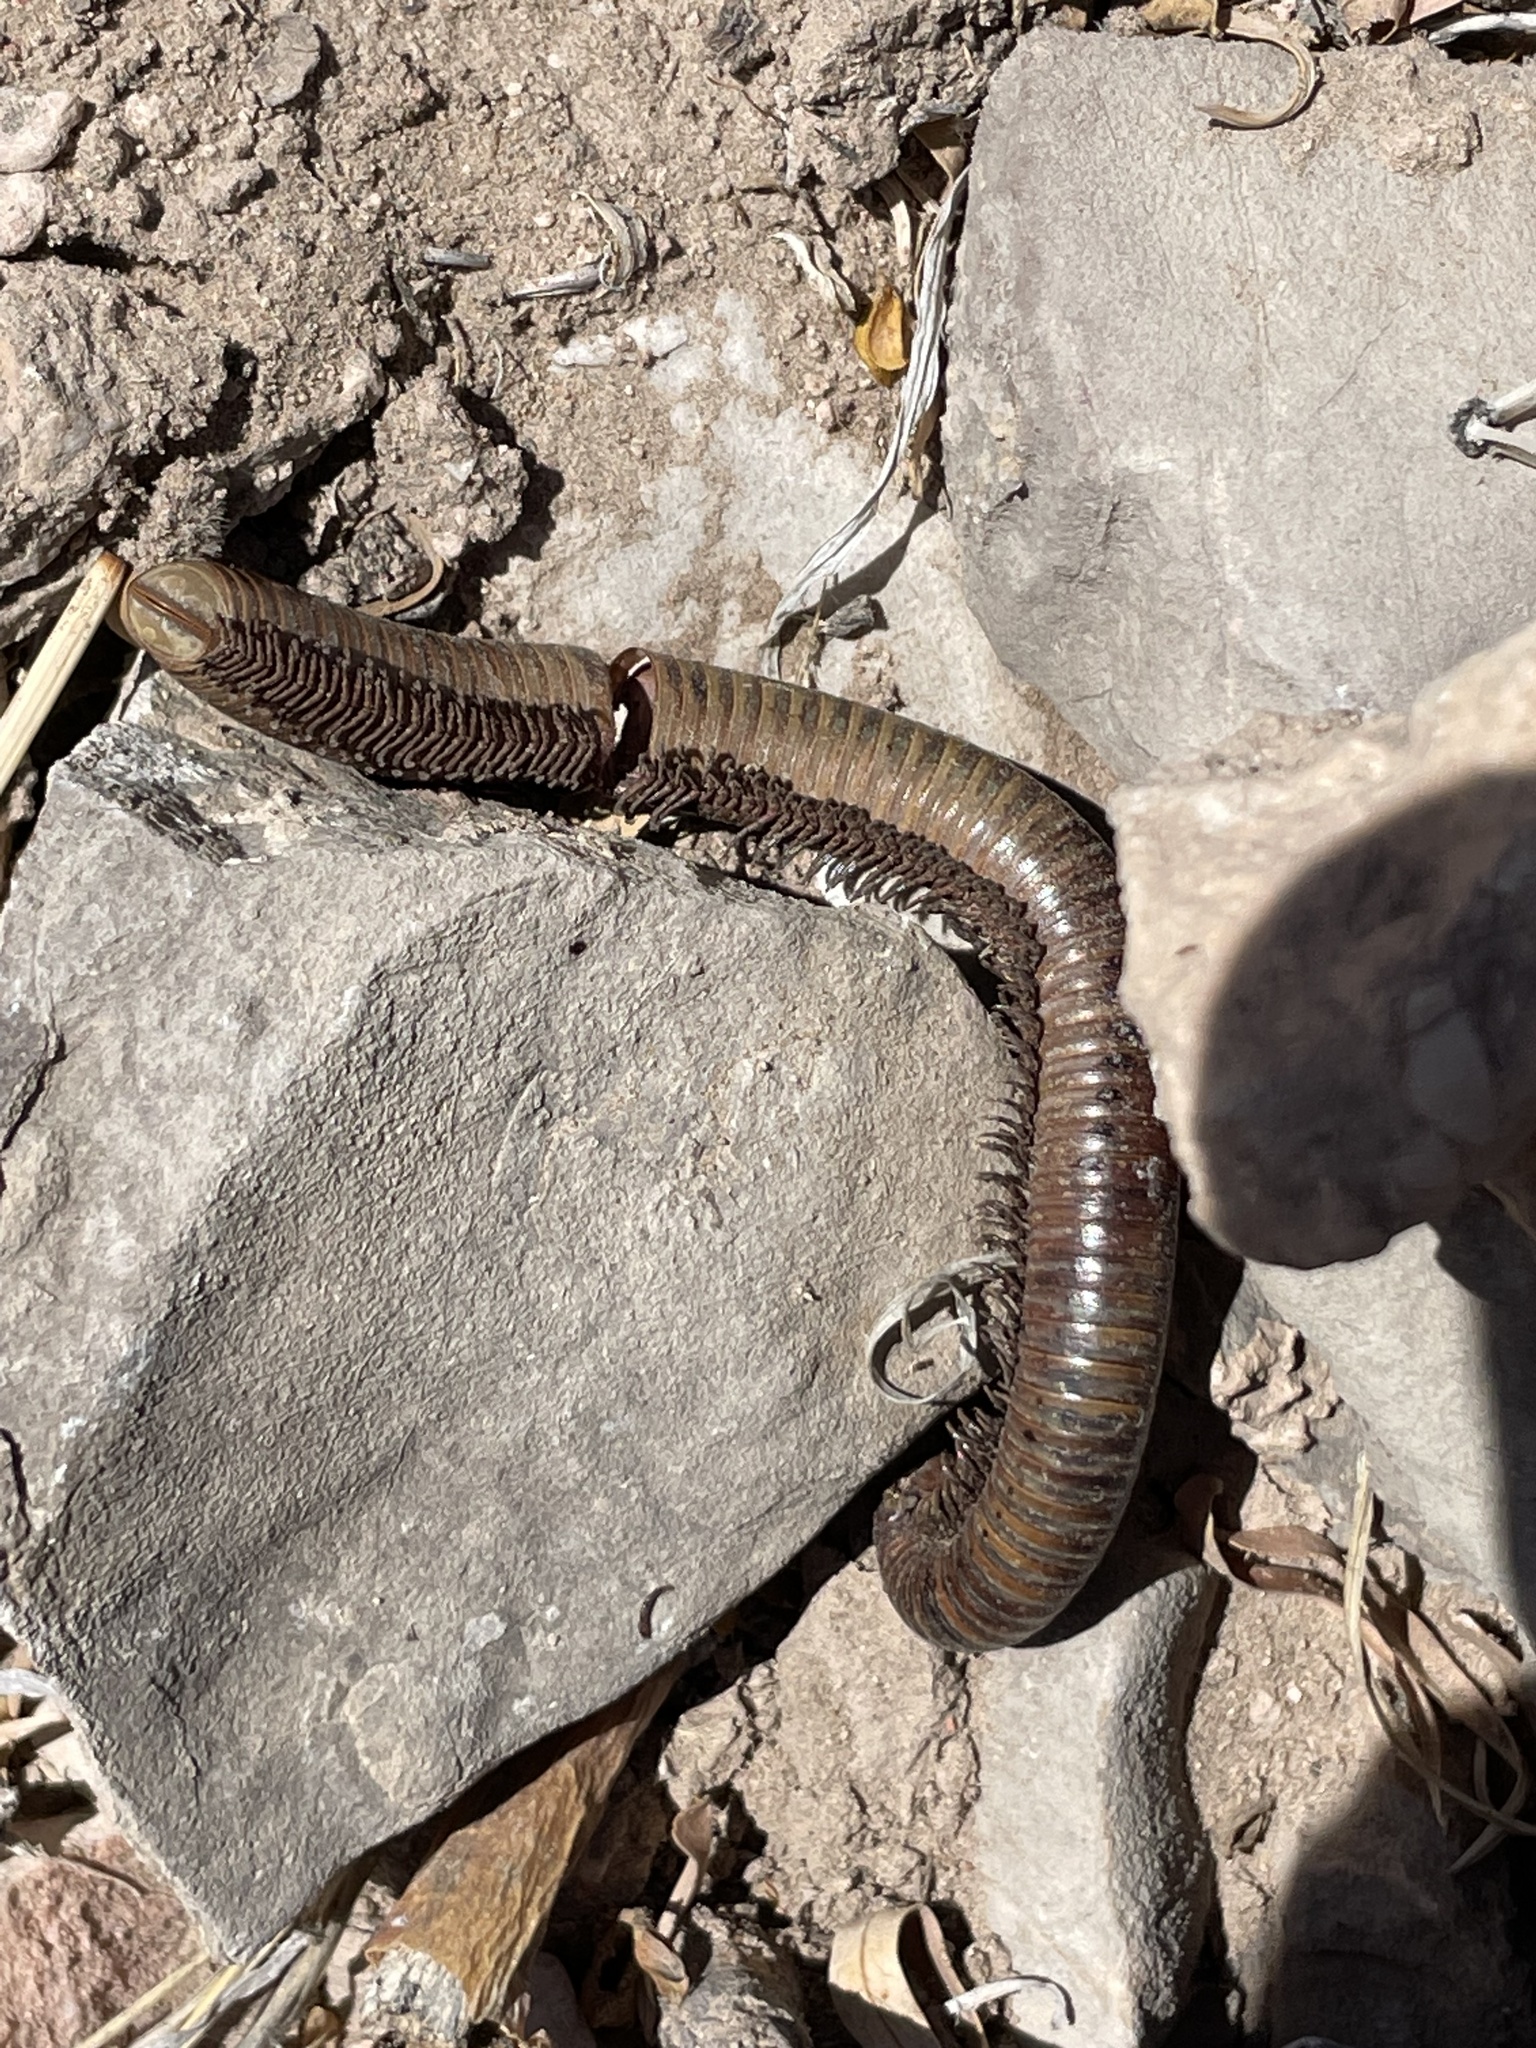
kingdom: Animalia
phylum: Arthropoda
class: Diplopoda
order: Spirostreptida
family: Spirostreptidae
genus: Orthoporus
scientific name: Orthoporus ornatus
